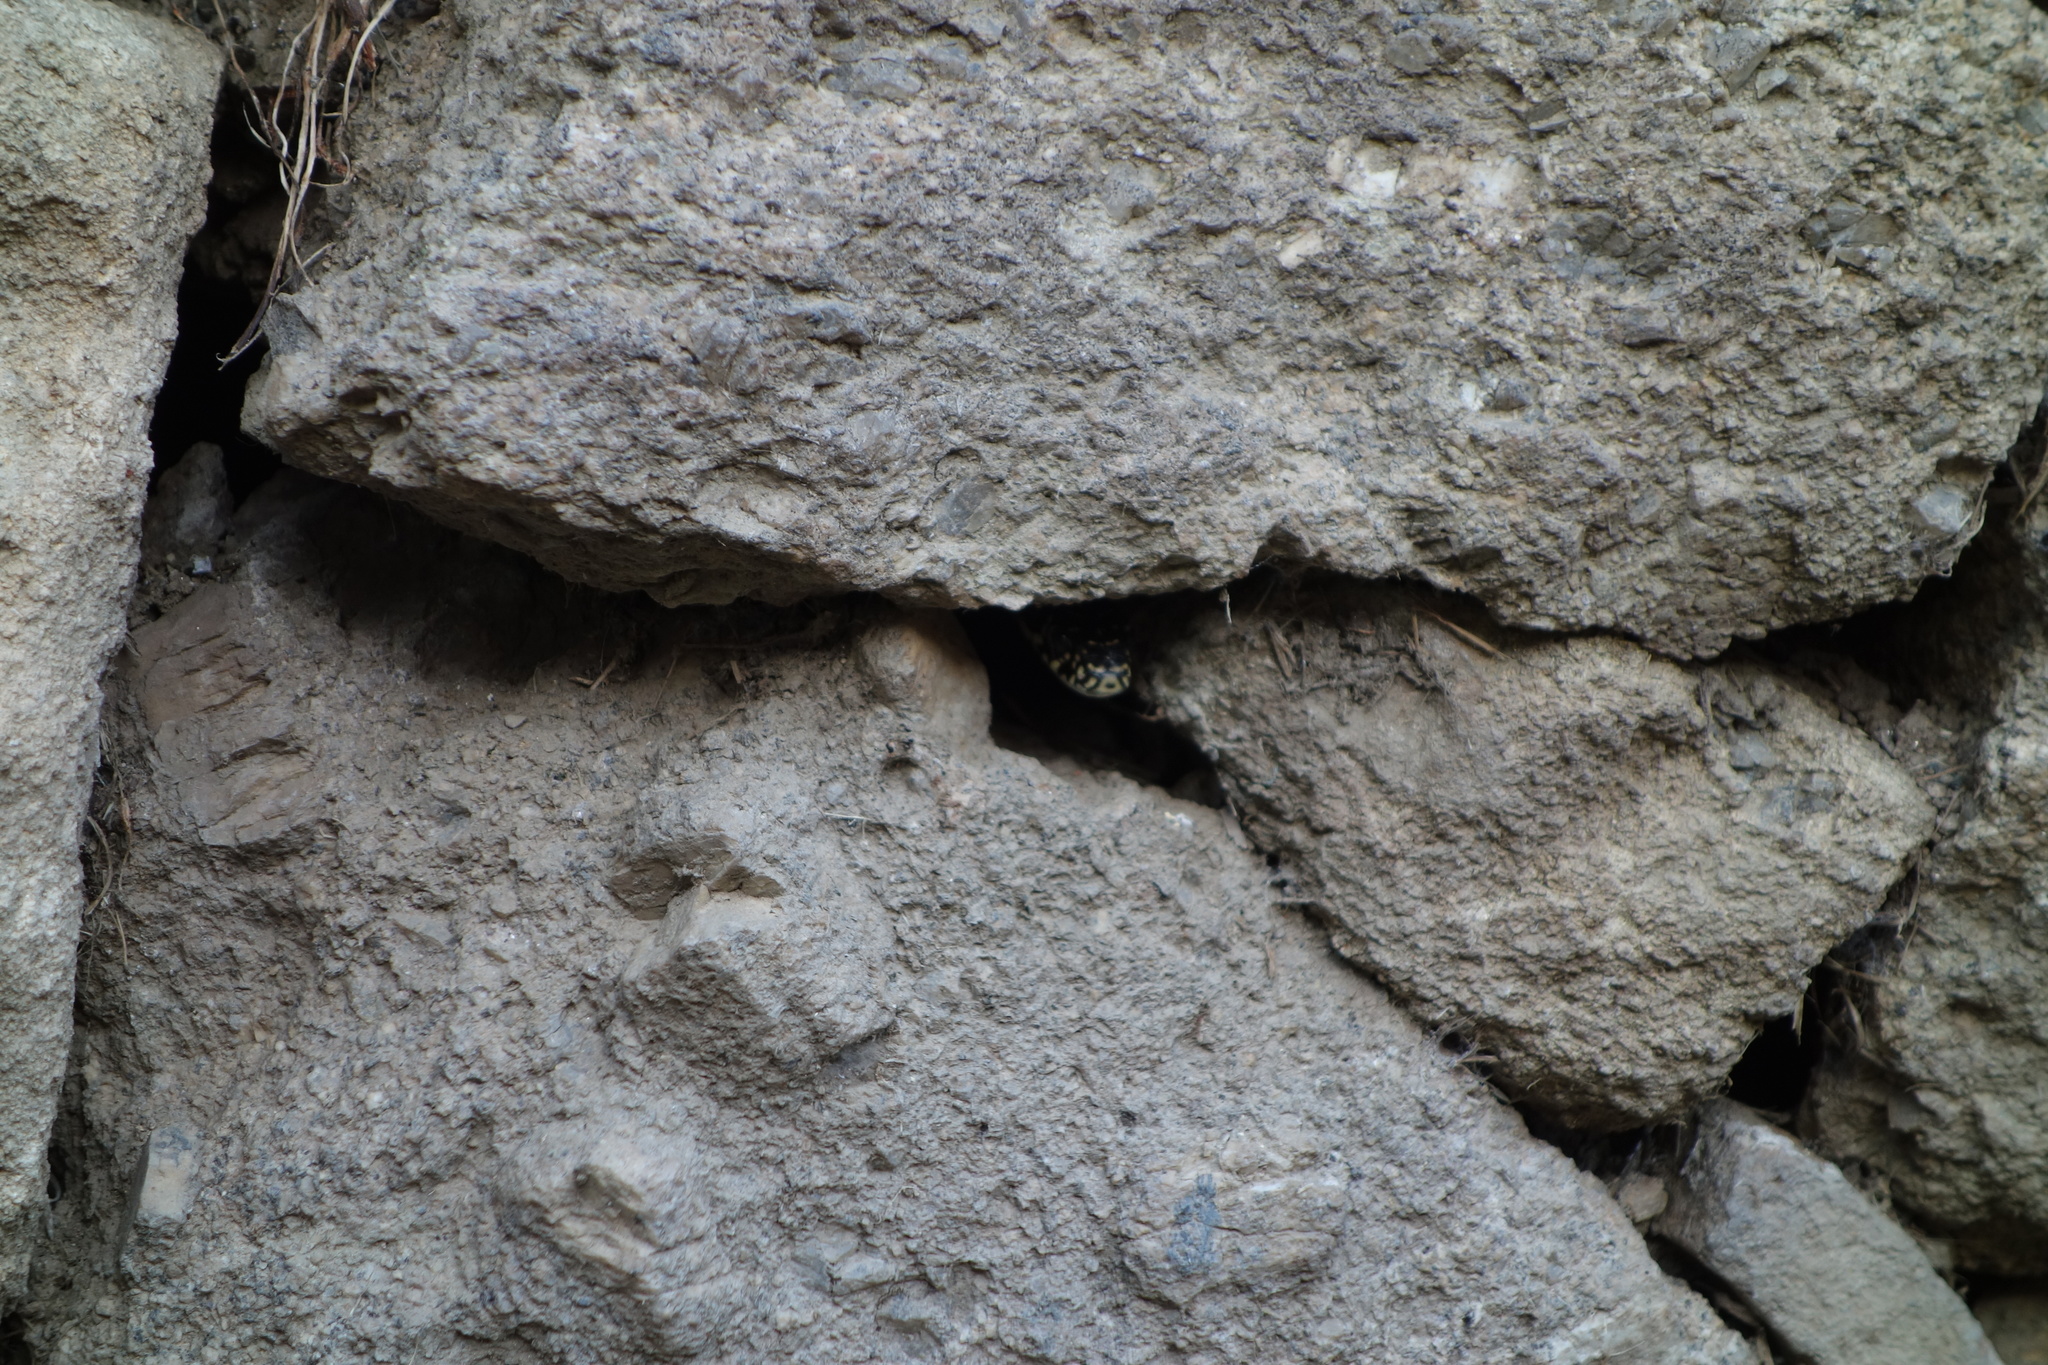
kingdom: Animalia
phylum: Chordata
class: Squamata
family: Colubridae
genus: Hierophis
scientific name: Hierophis viridiflavus
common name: Green whip snake
